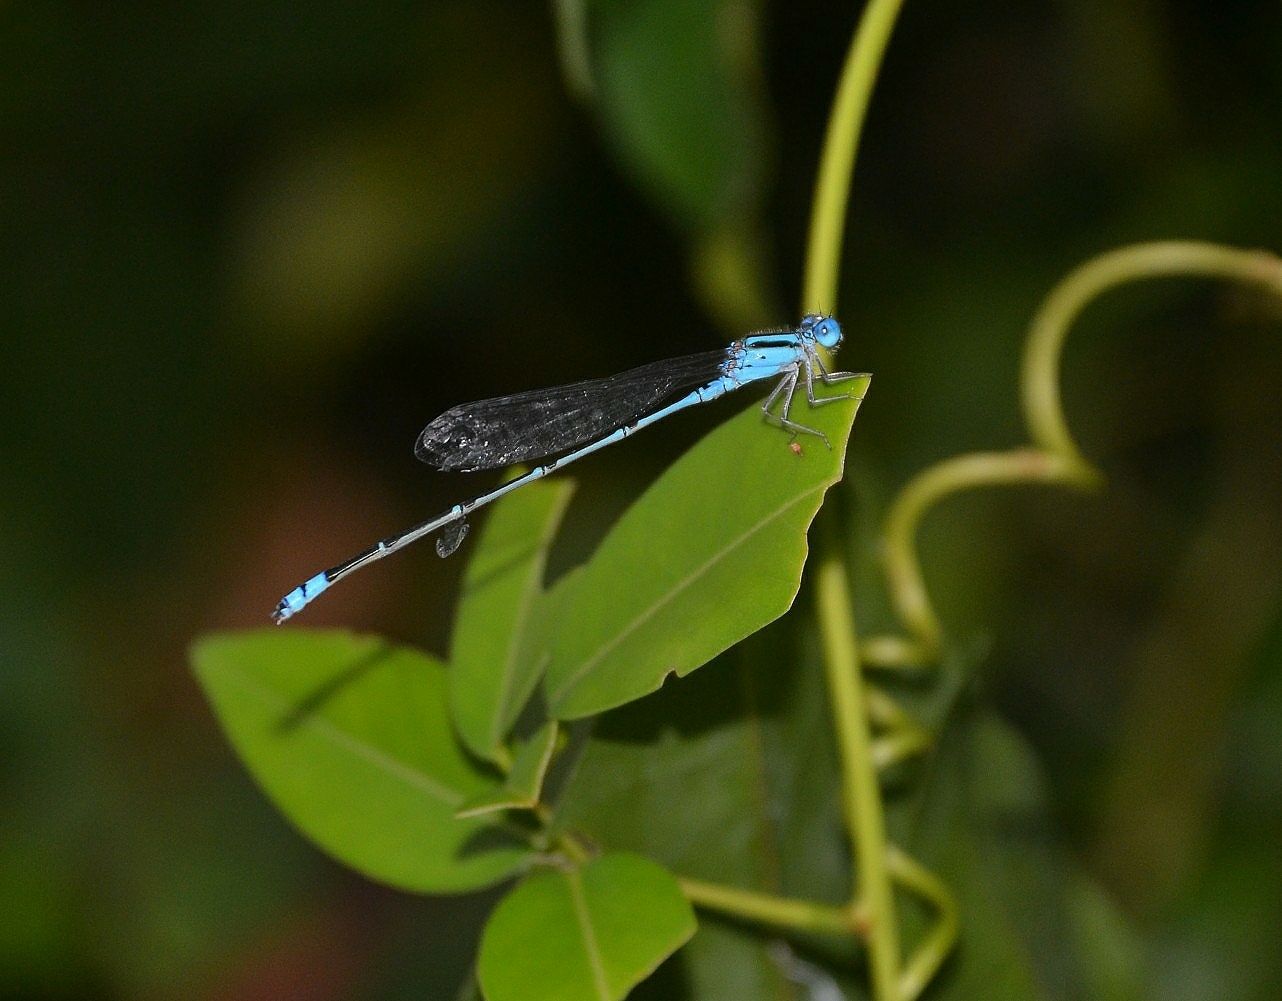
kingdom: Animalia
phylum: Arthropoda
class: Insecta
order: Odonata
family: Coenagrionidae
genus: Pseudagrion
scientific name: Pseudagrion microcephalum
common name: Blue riverdamsel
